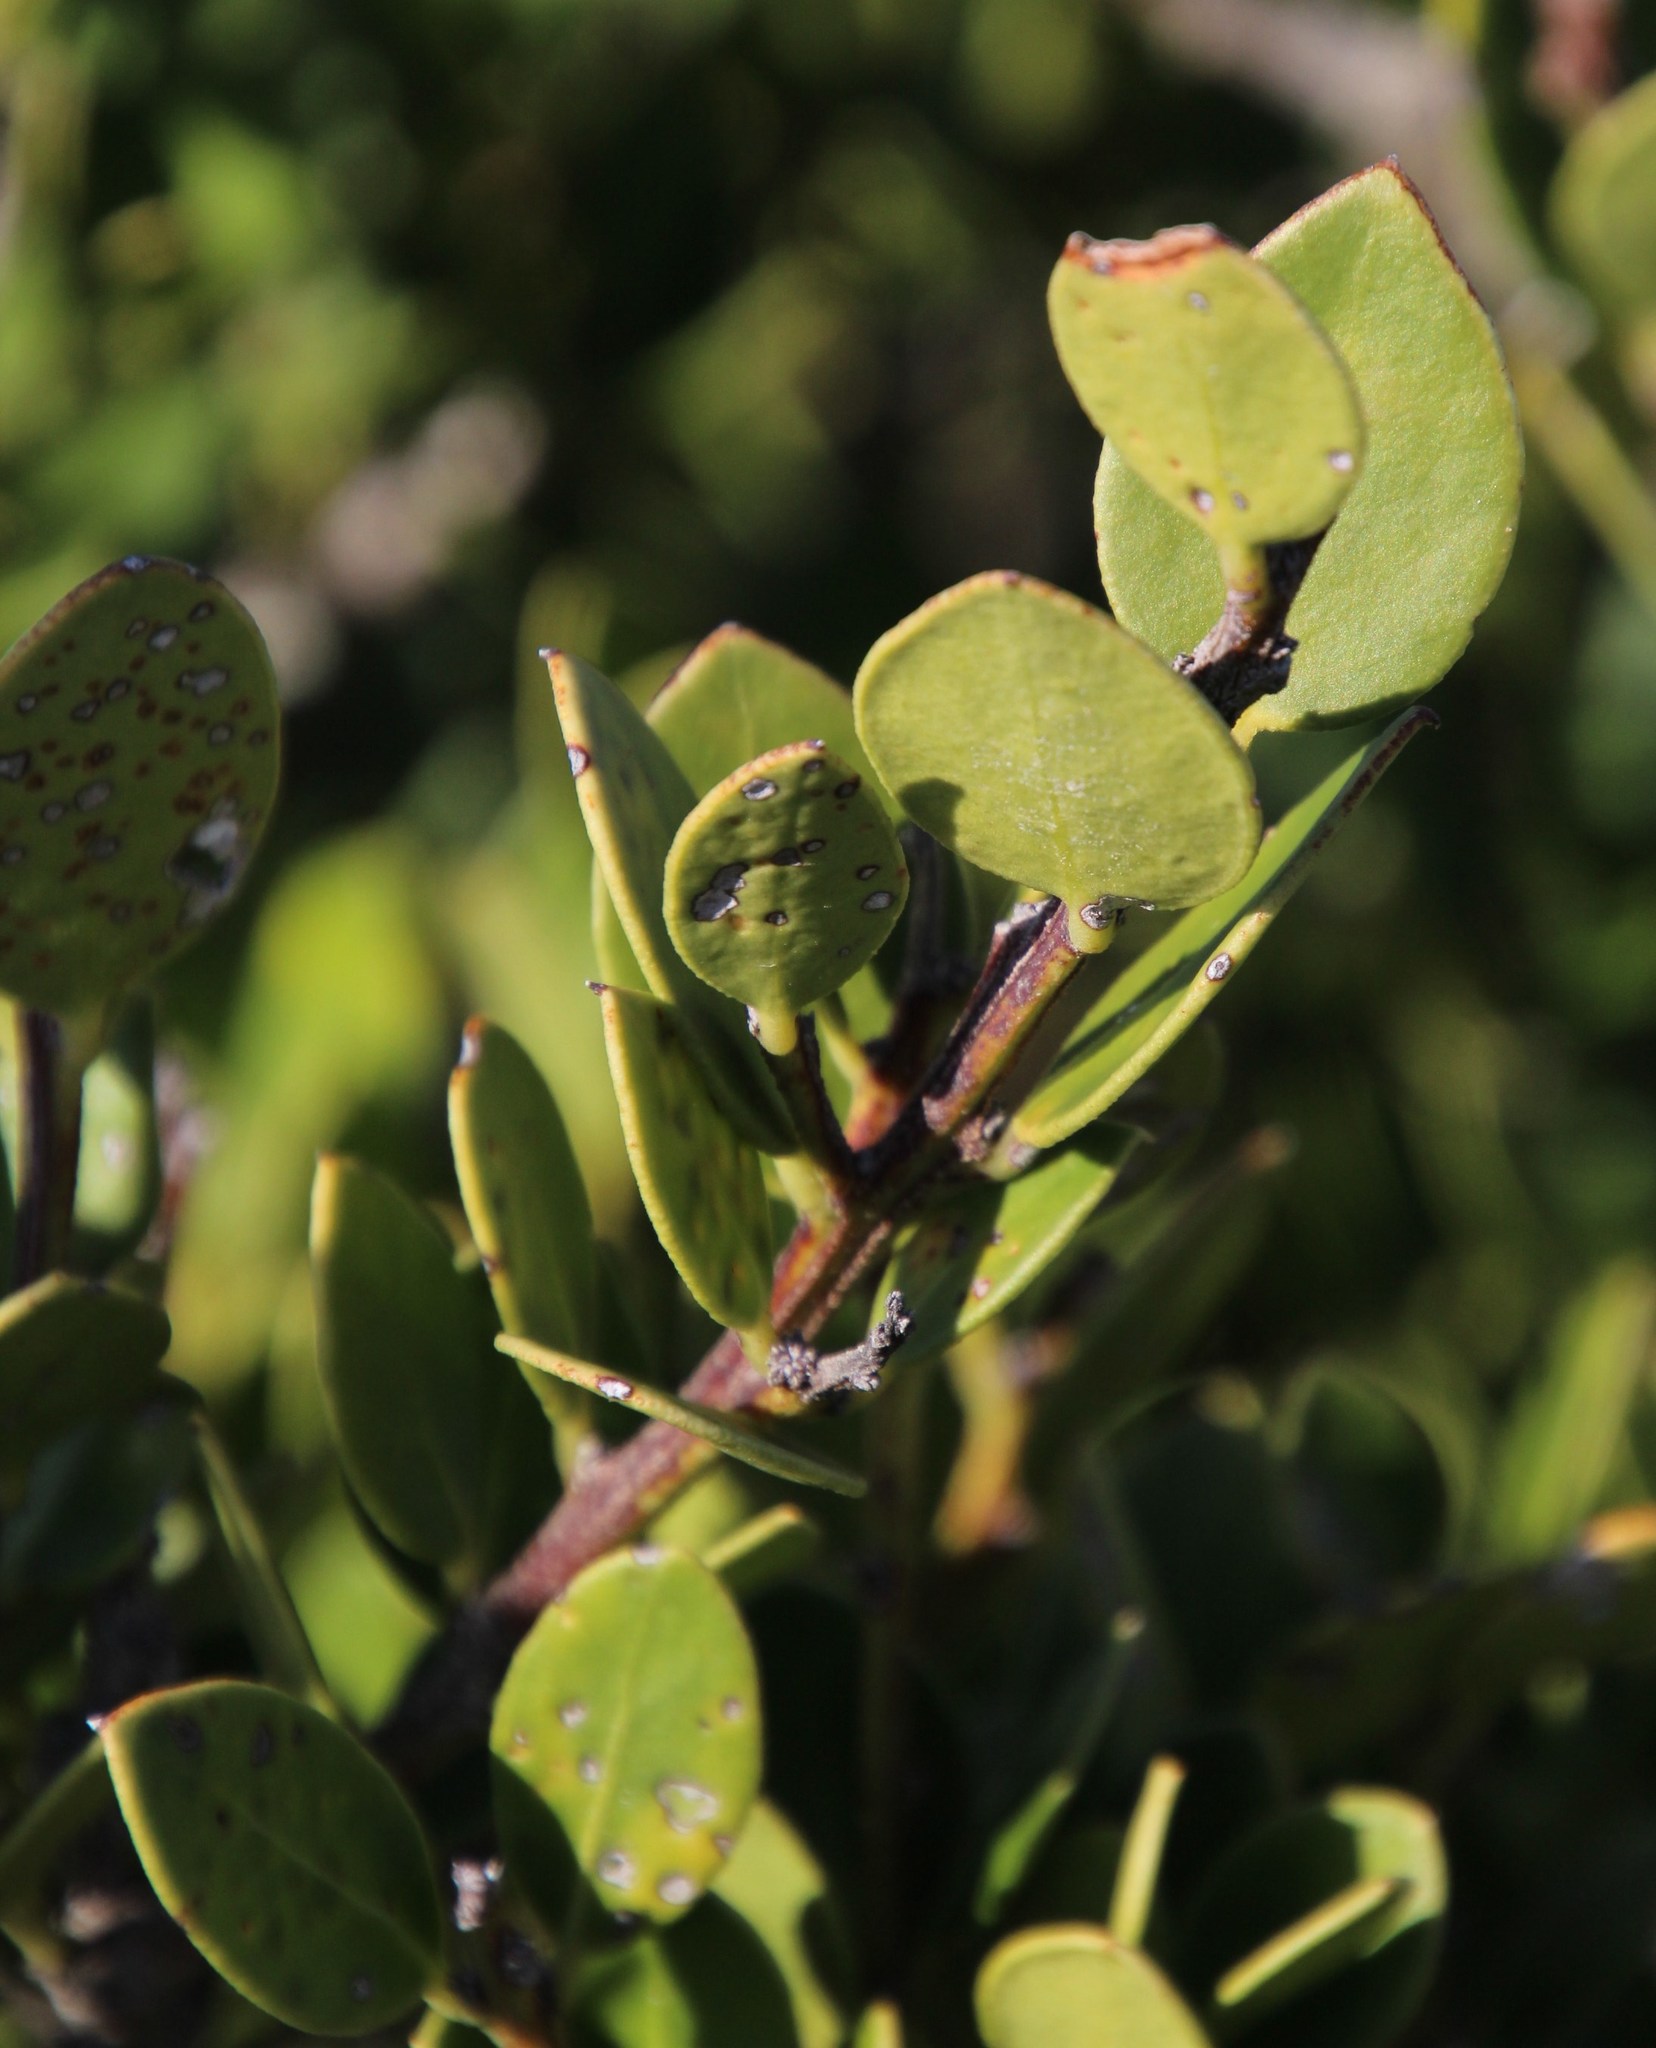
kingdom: Plantae
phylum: Tracheophyta
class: Magnoliopsida
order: Celastrales
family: Celastraceae
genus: Robsonodendron
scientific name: Robsonodendron maritimum
